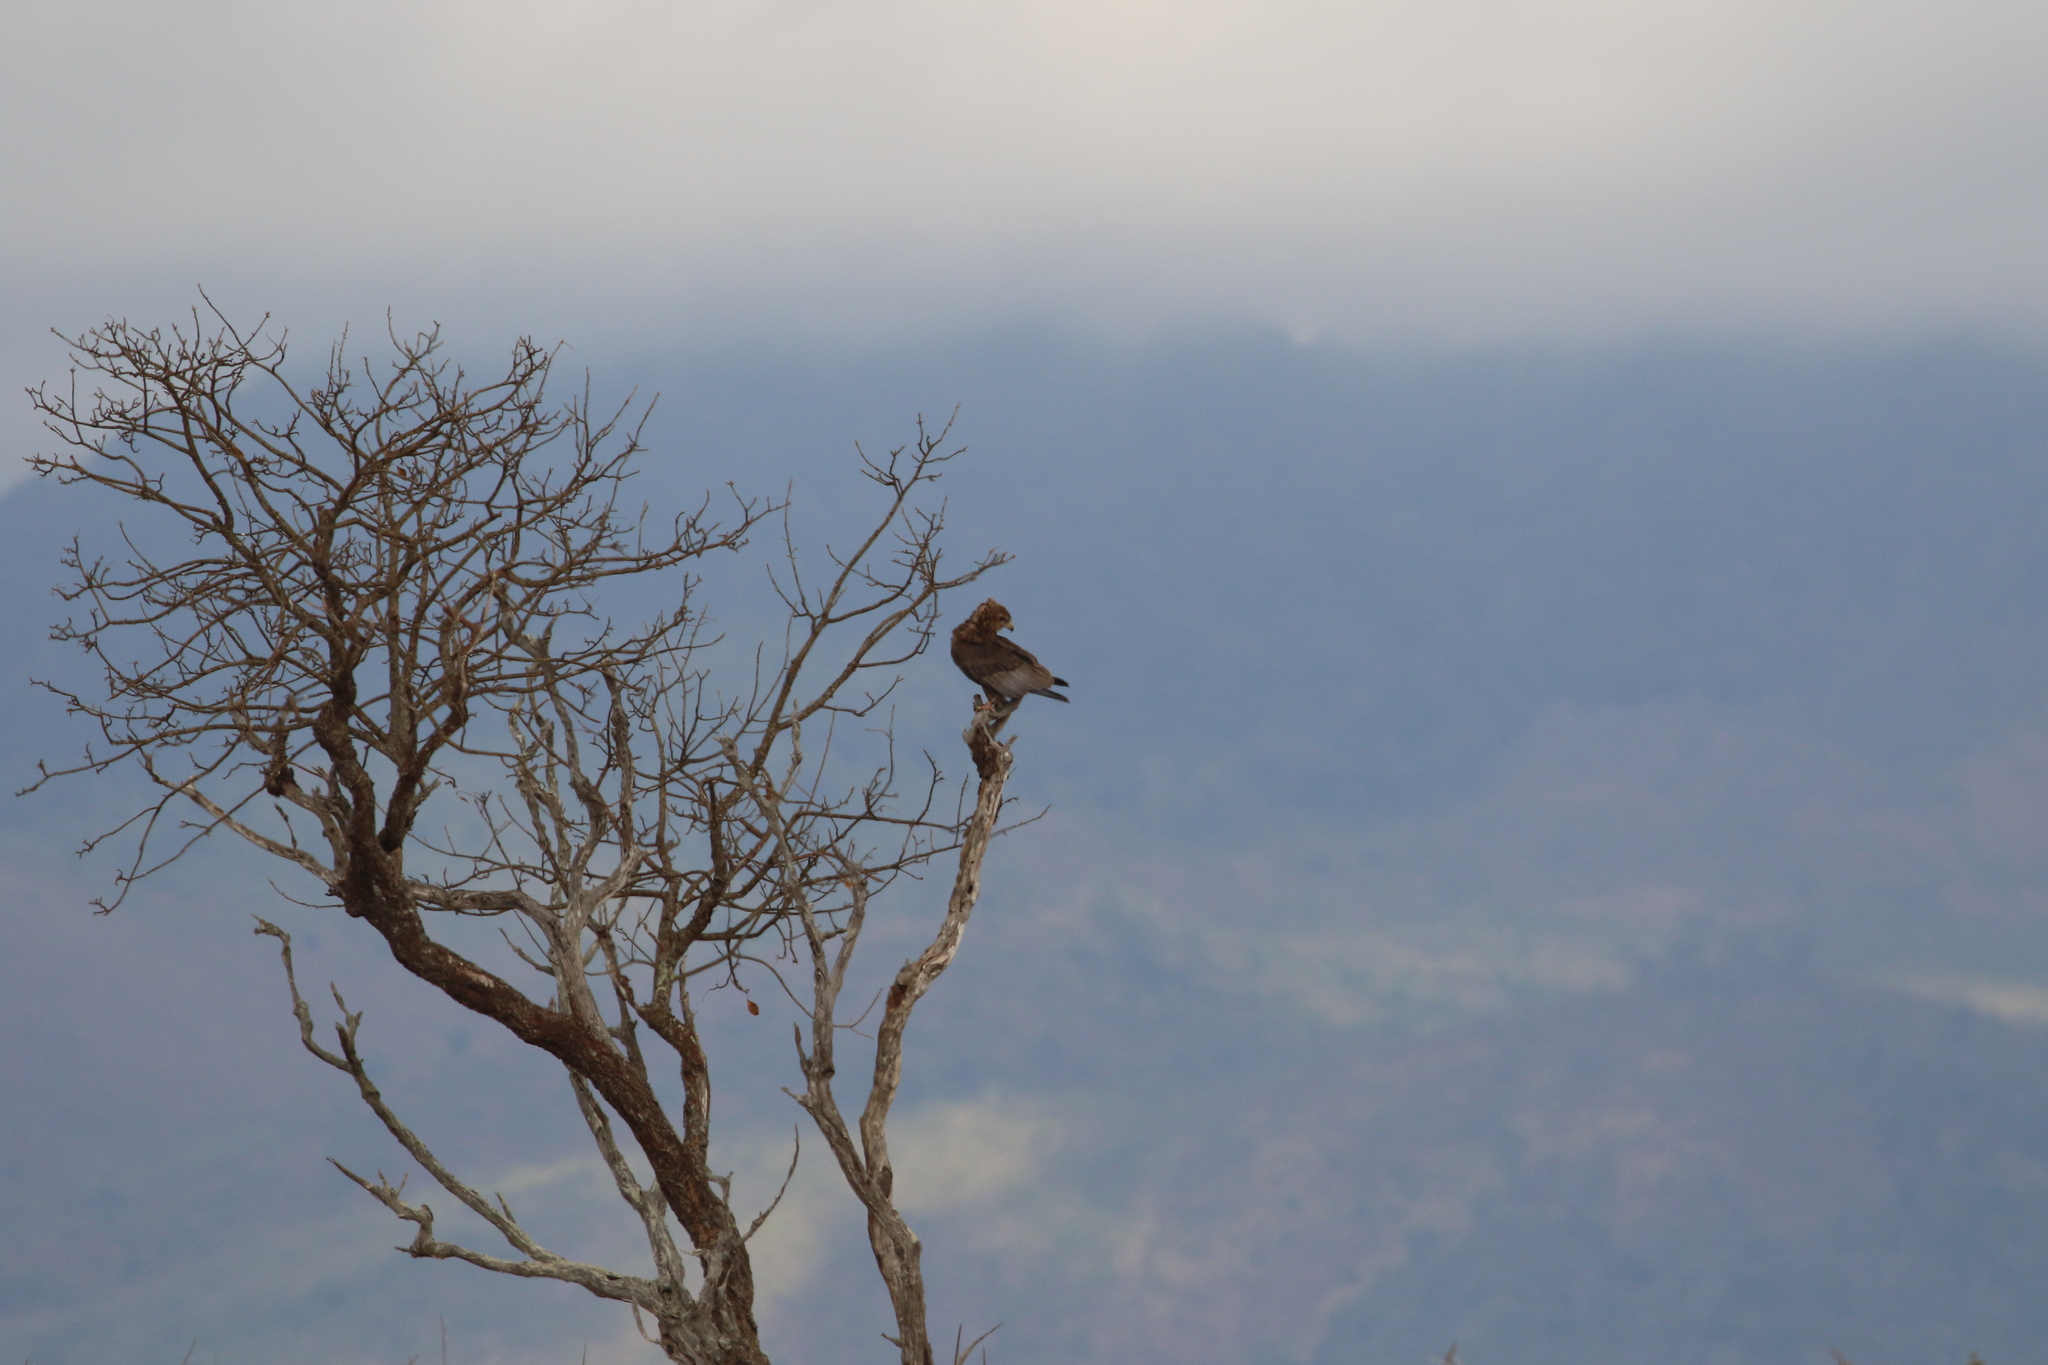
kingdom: Animalia
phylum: Chordata
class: Aves
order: Accipitriformes
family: Accipitridae
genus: Terathopius
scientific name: Terathopius ecaudatus
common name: Bateleur
